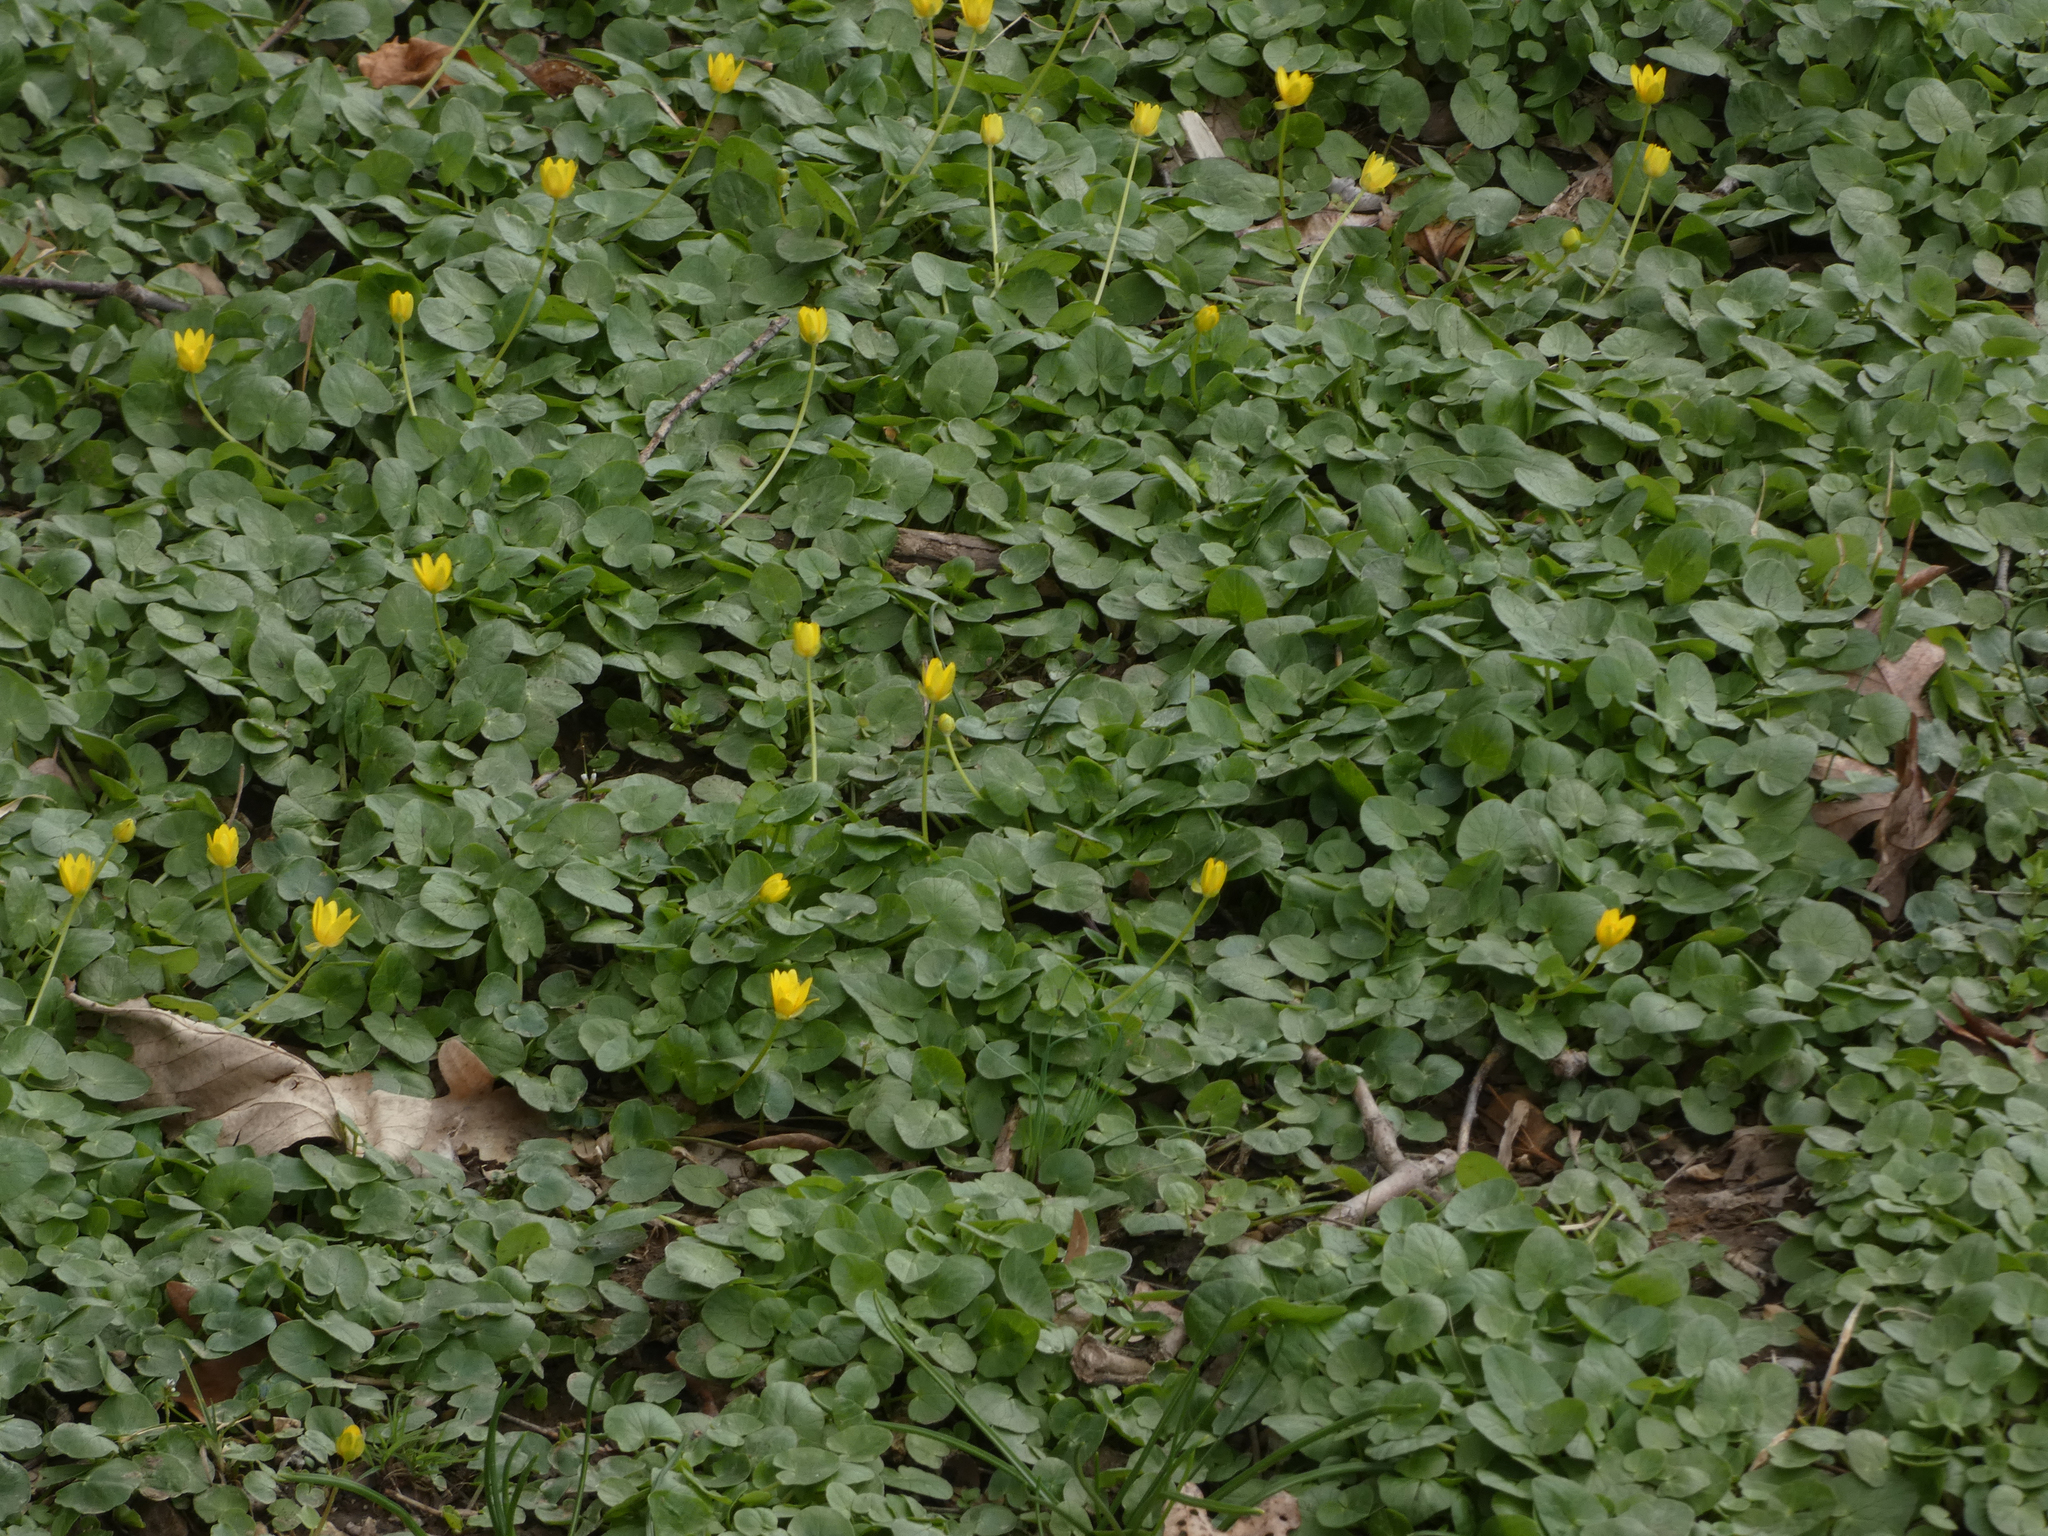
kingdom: Plantae
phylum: Tracheophyta
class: Magnoliopsida
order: Ranunculales
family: Ranunculaceae
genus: Ficaria
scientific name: Ficaria verna
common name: Lesser celandine
